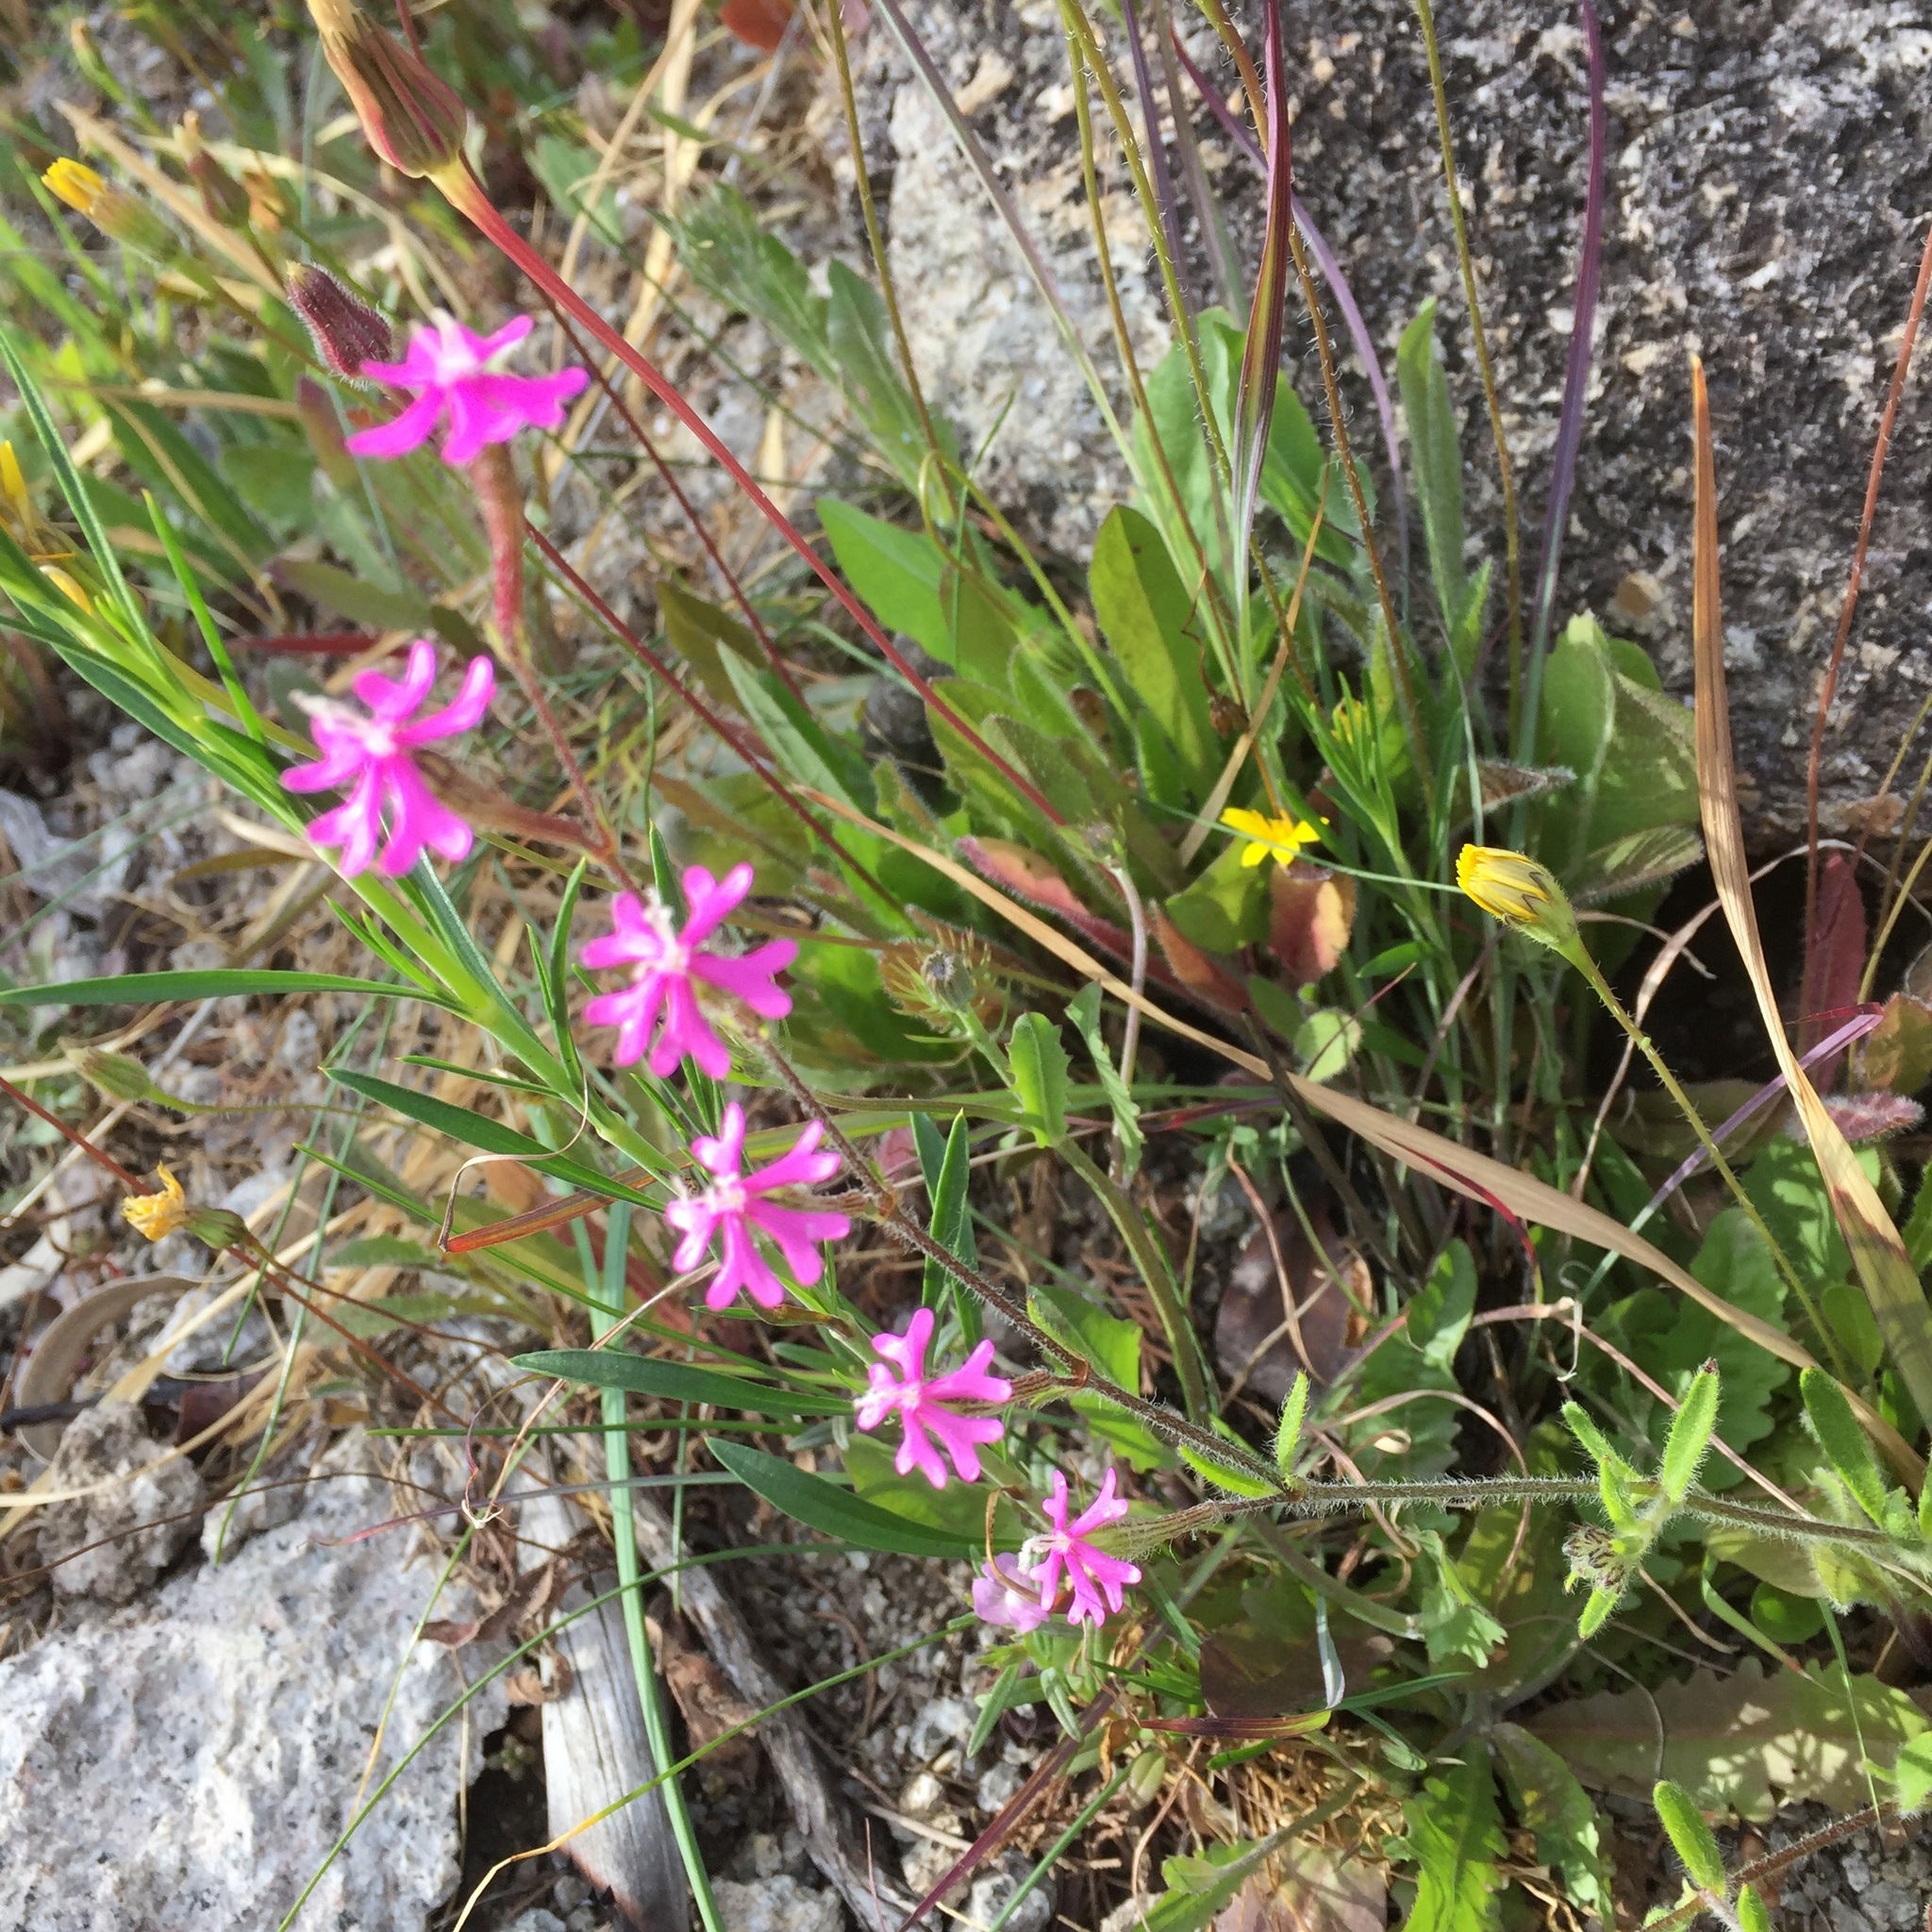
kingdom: Plantae
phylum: Tracheophyta
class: Magnoliopsida
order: Caryophyllales
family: Caryophyllaceae
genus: Silene
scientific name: Silene colorata
